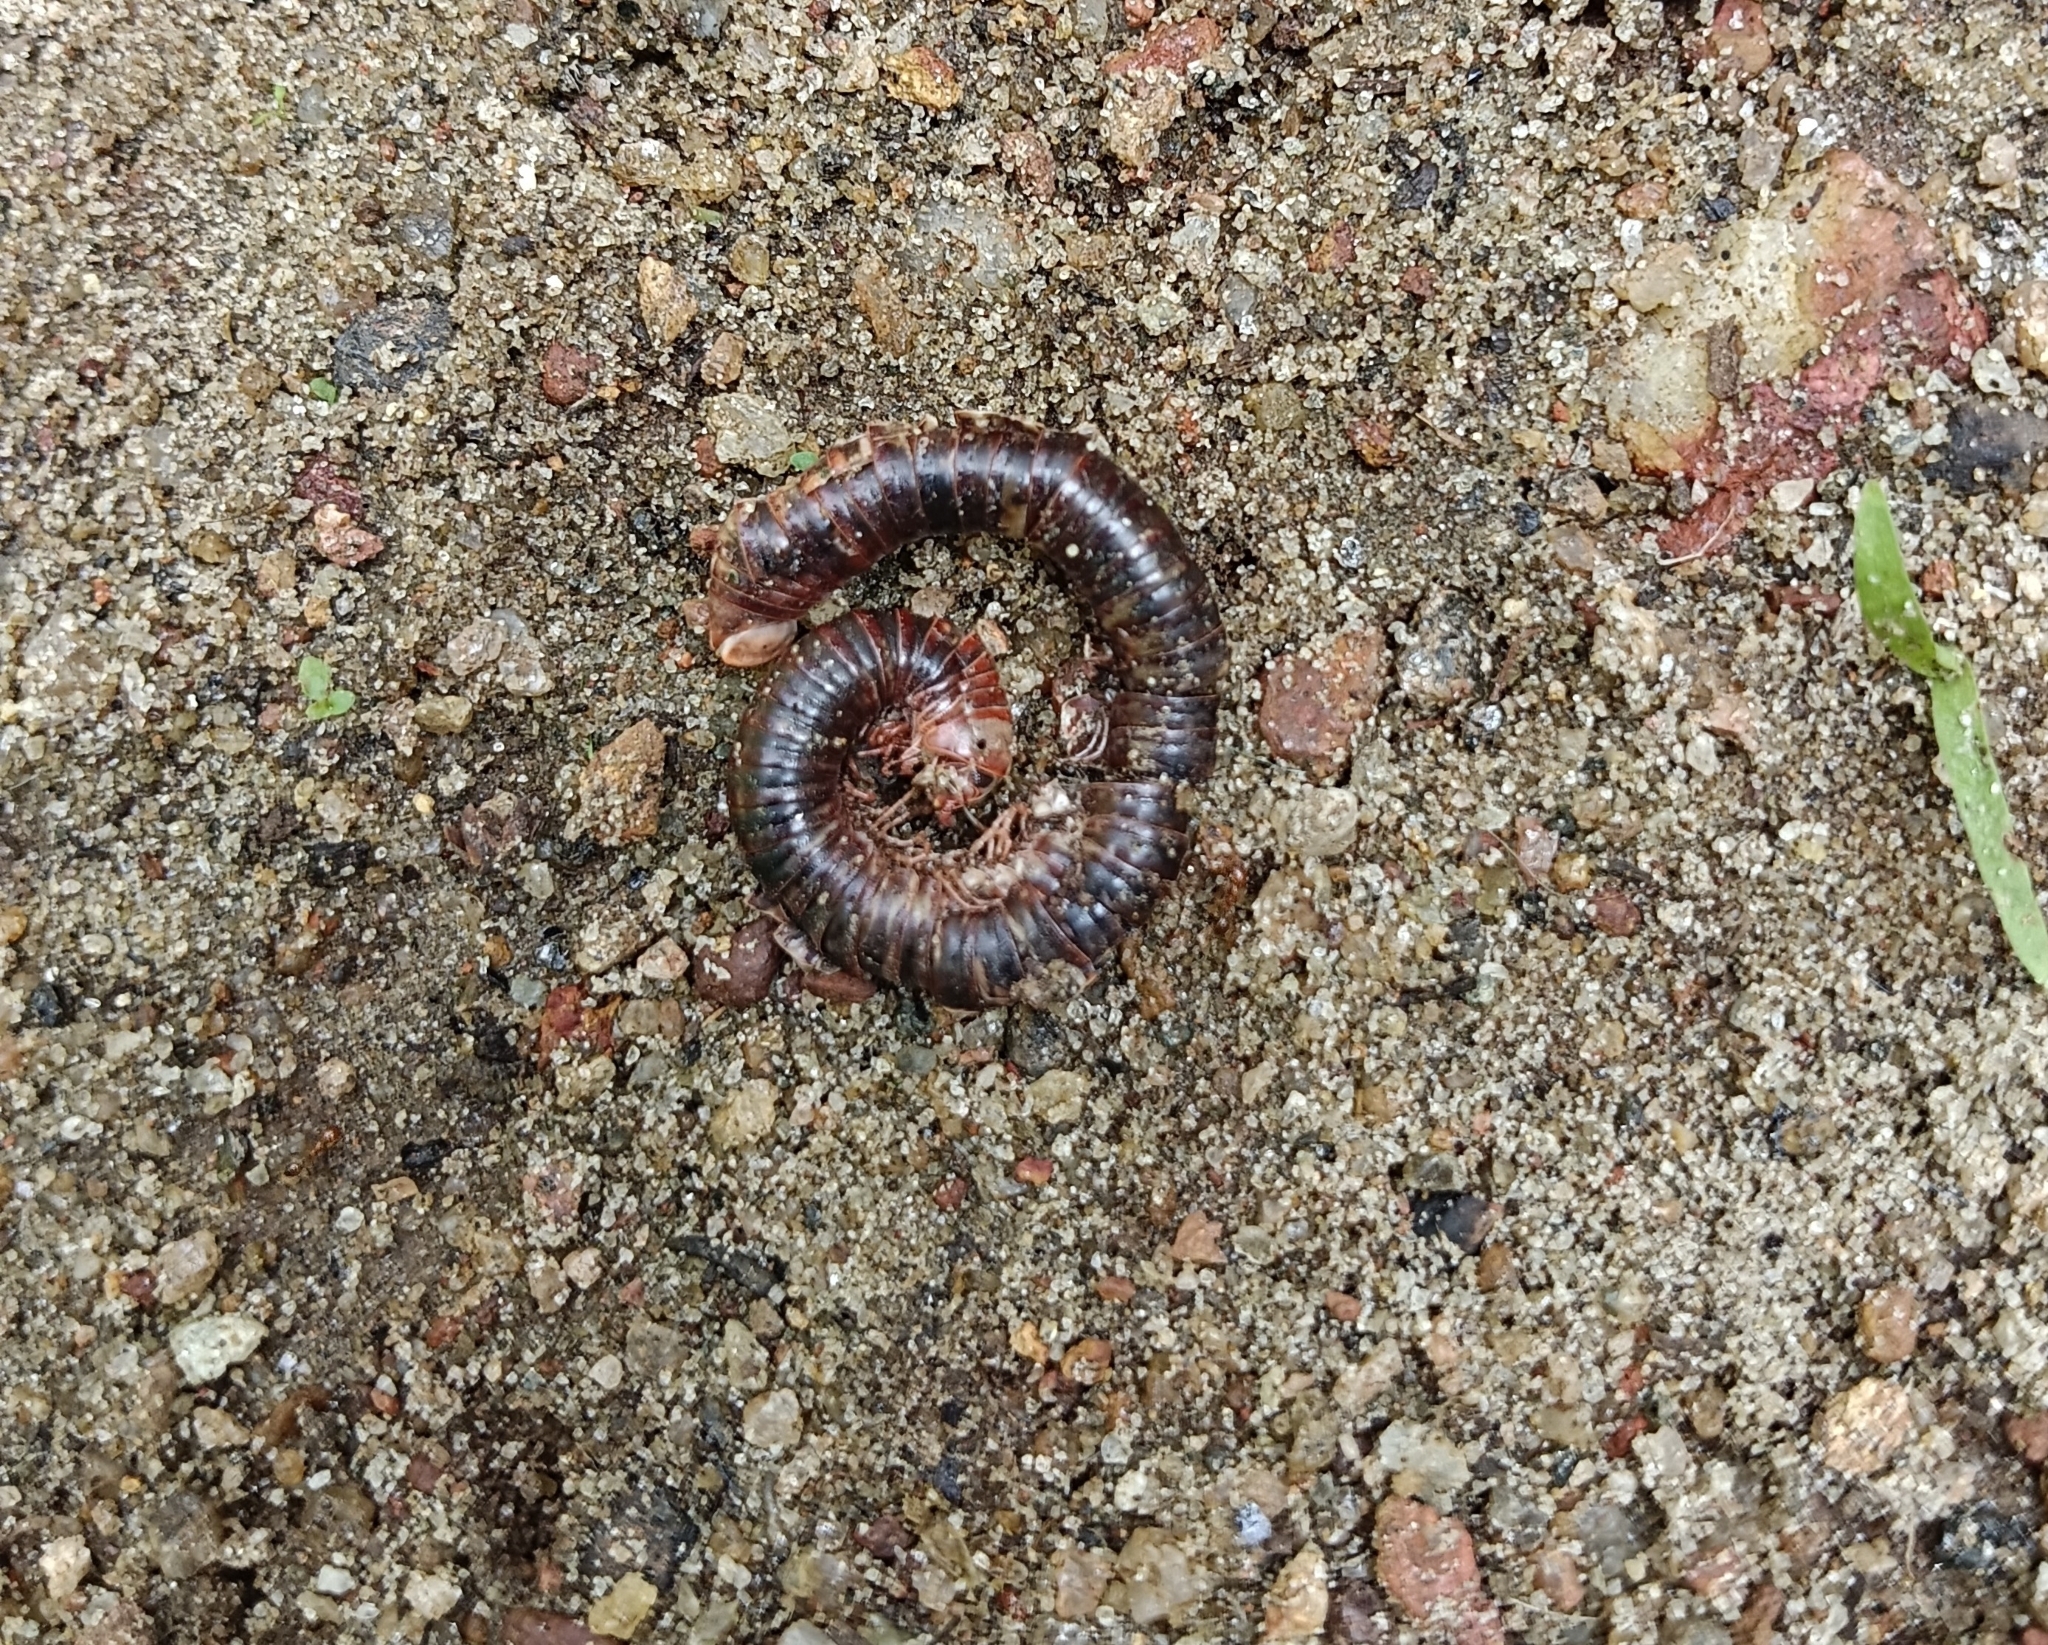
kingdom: Animalia
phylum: Arthropoda
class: Diplopoda
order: Spirobolida
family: Pachybolidae
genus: Trigoniulus
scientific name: Trigoniulus corallinus
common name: Millipede
